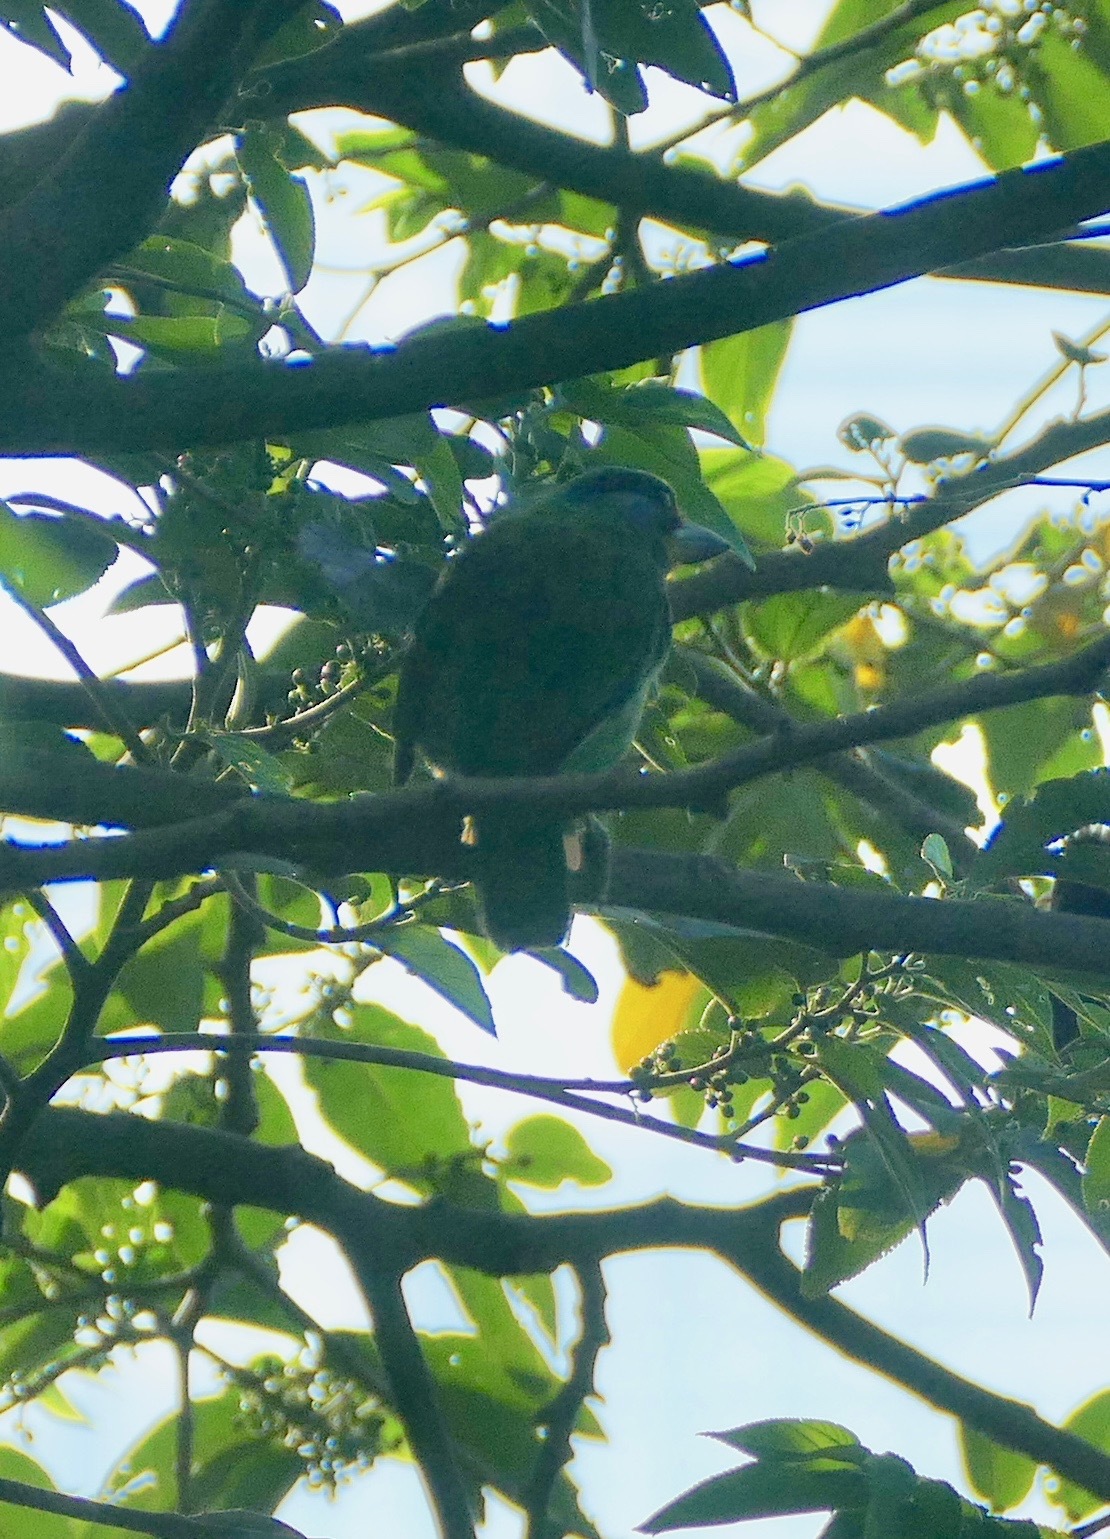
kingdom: Animalia
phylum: Chordata
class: Aves
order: Piciformes
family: Megalaimidae
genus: Psilopogon
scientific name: Psilopogon nuchalis
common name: Taiwan barbet
